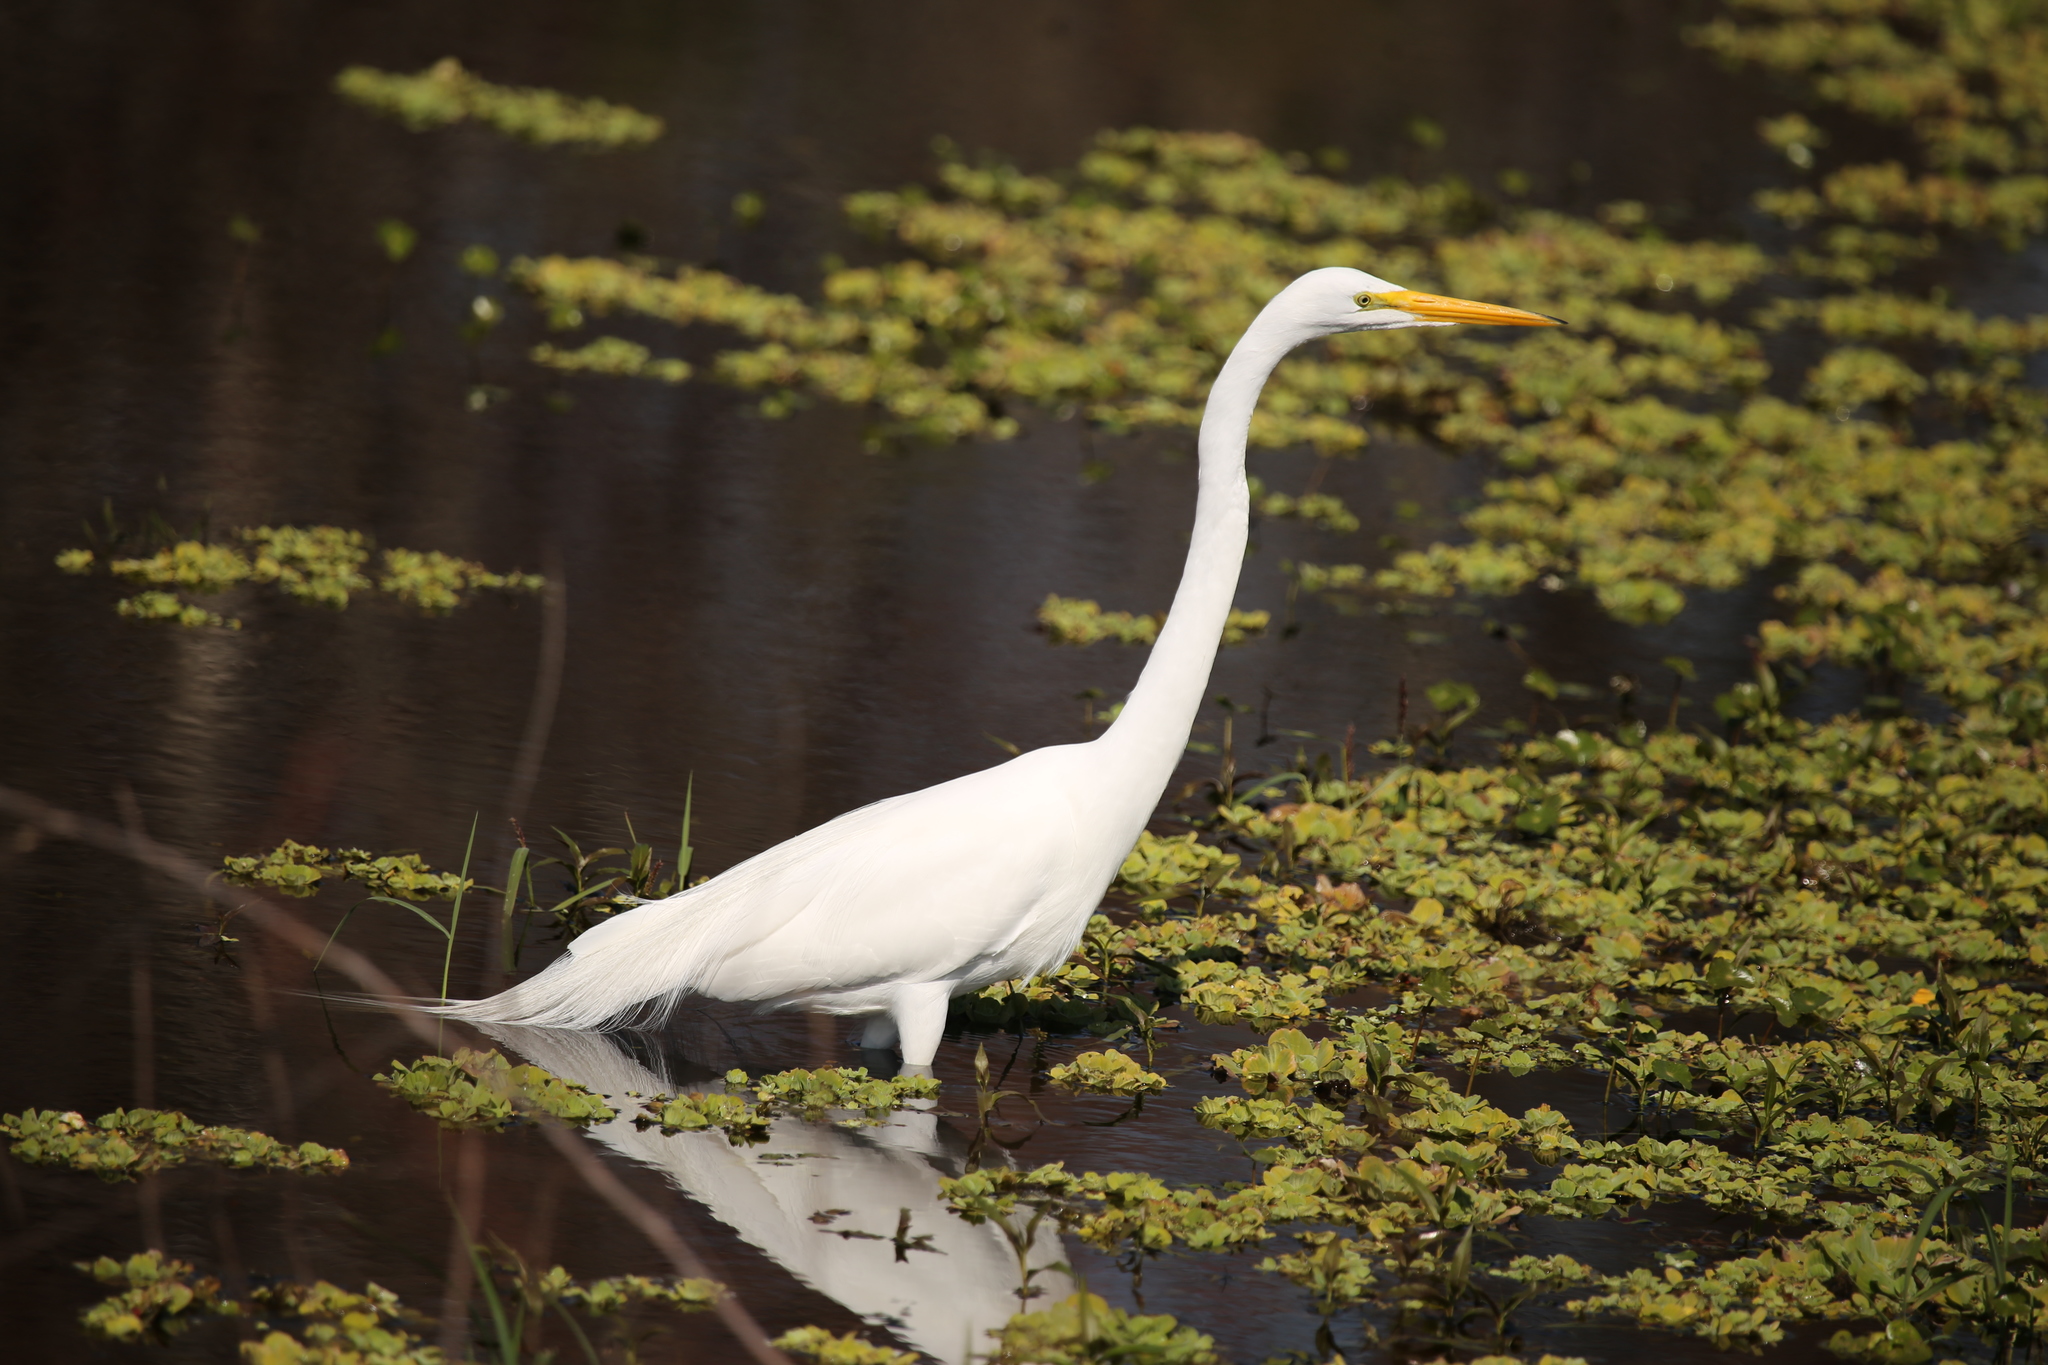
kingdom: Animalia
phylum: Chordata
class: Aves
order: Pelecaniformes
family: Ardeidae
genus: Ardea
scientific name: Ardea alba
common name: Great egret
